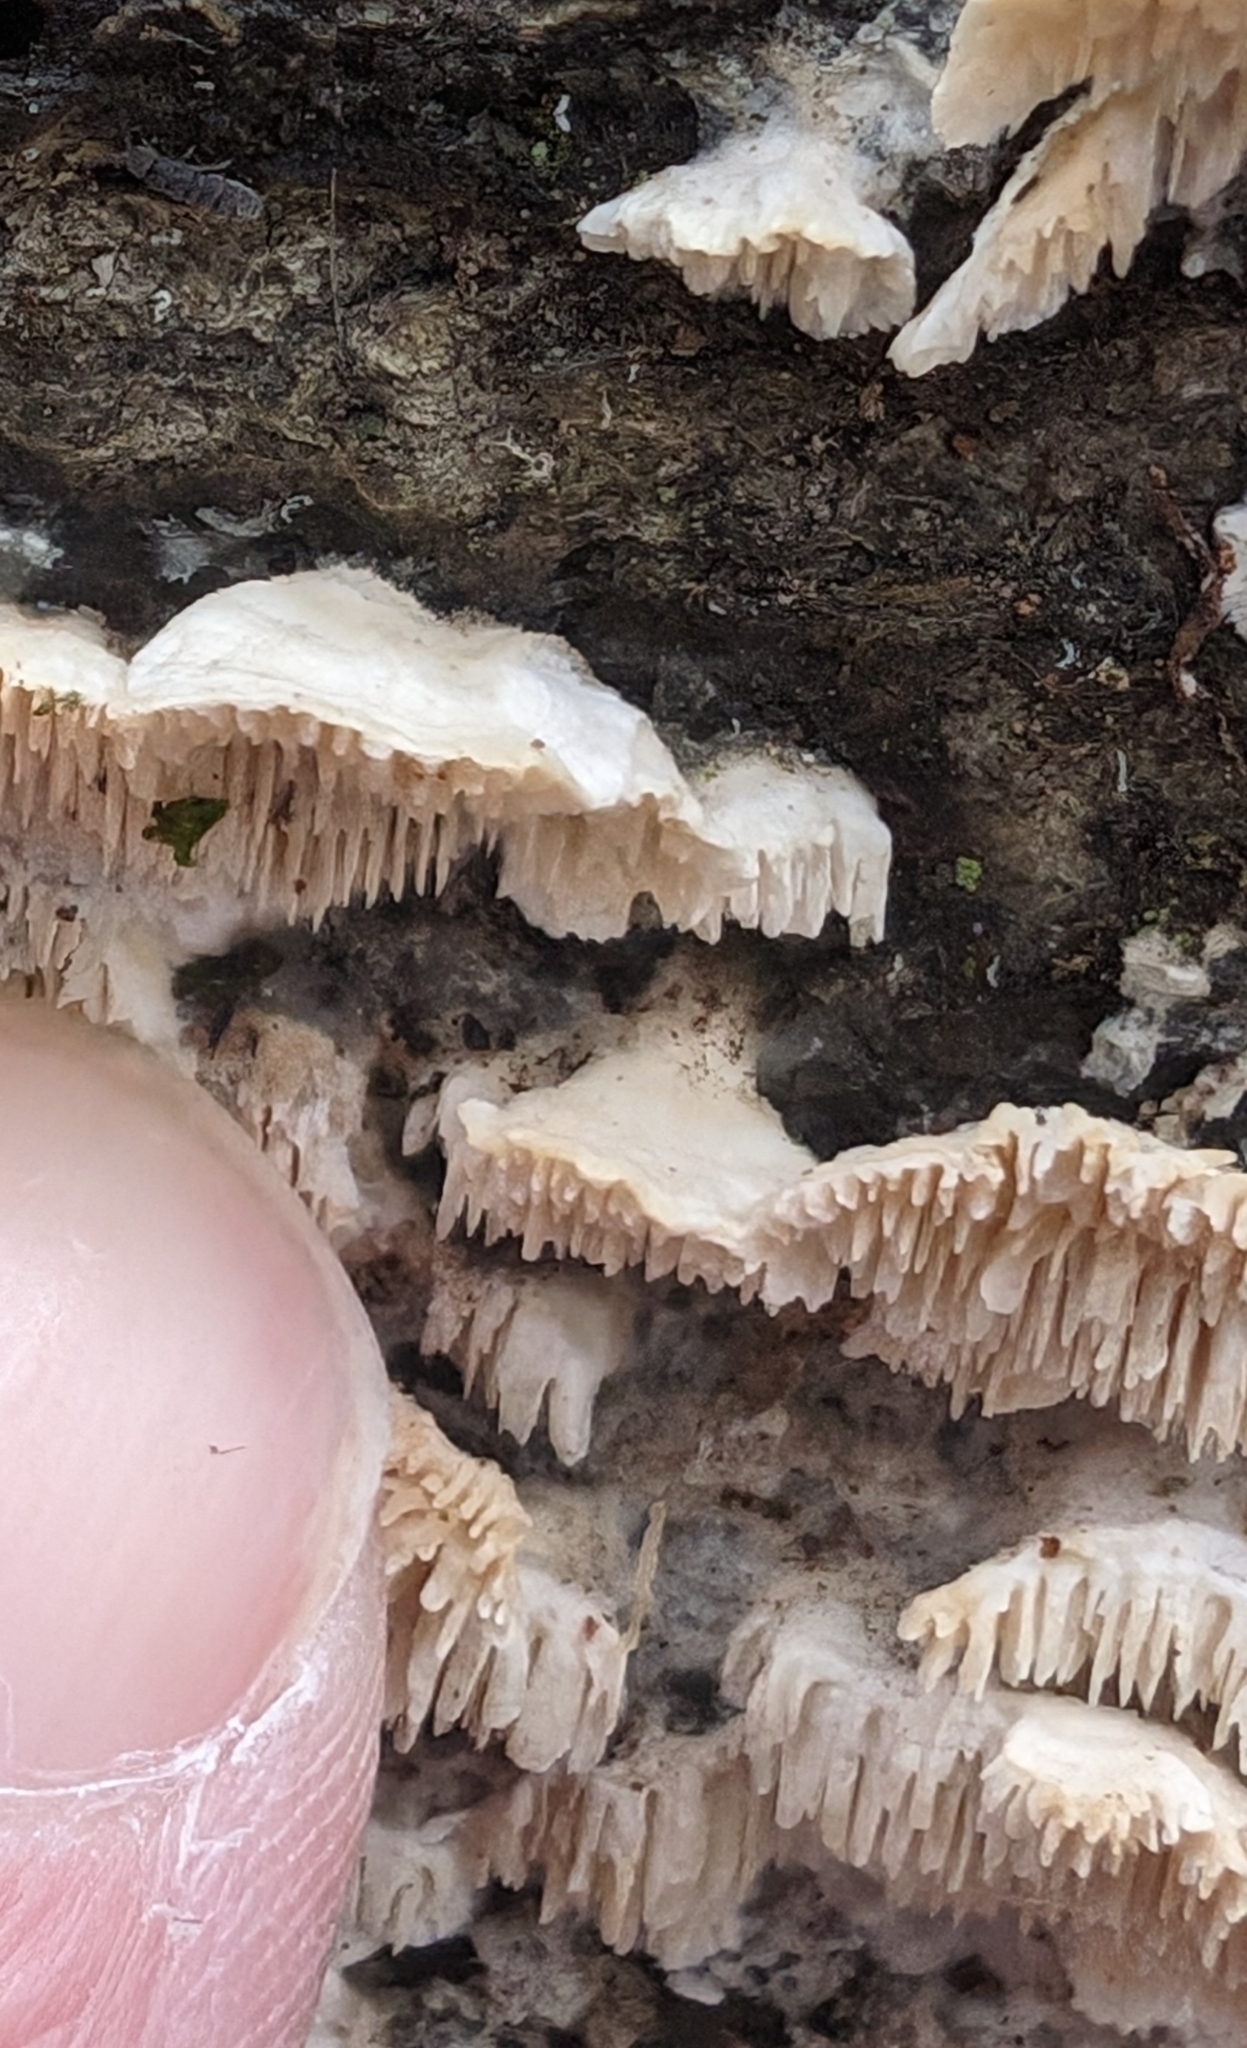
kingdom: Fungi
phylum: Basidiomycota
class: Agaricomycetes
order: Polyporales
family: Irpicaceae
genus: Irpex
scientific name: Irpex lacteus
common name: Milk-white toothed polypore
